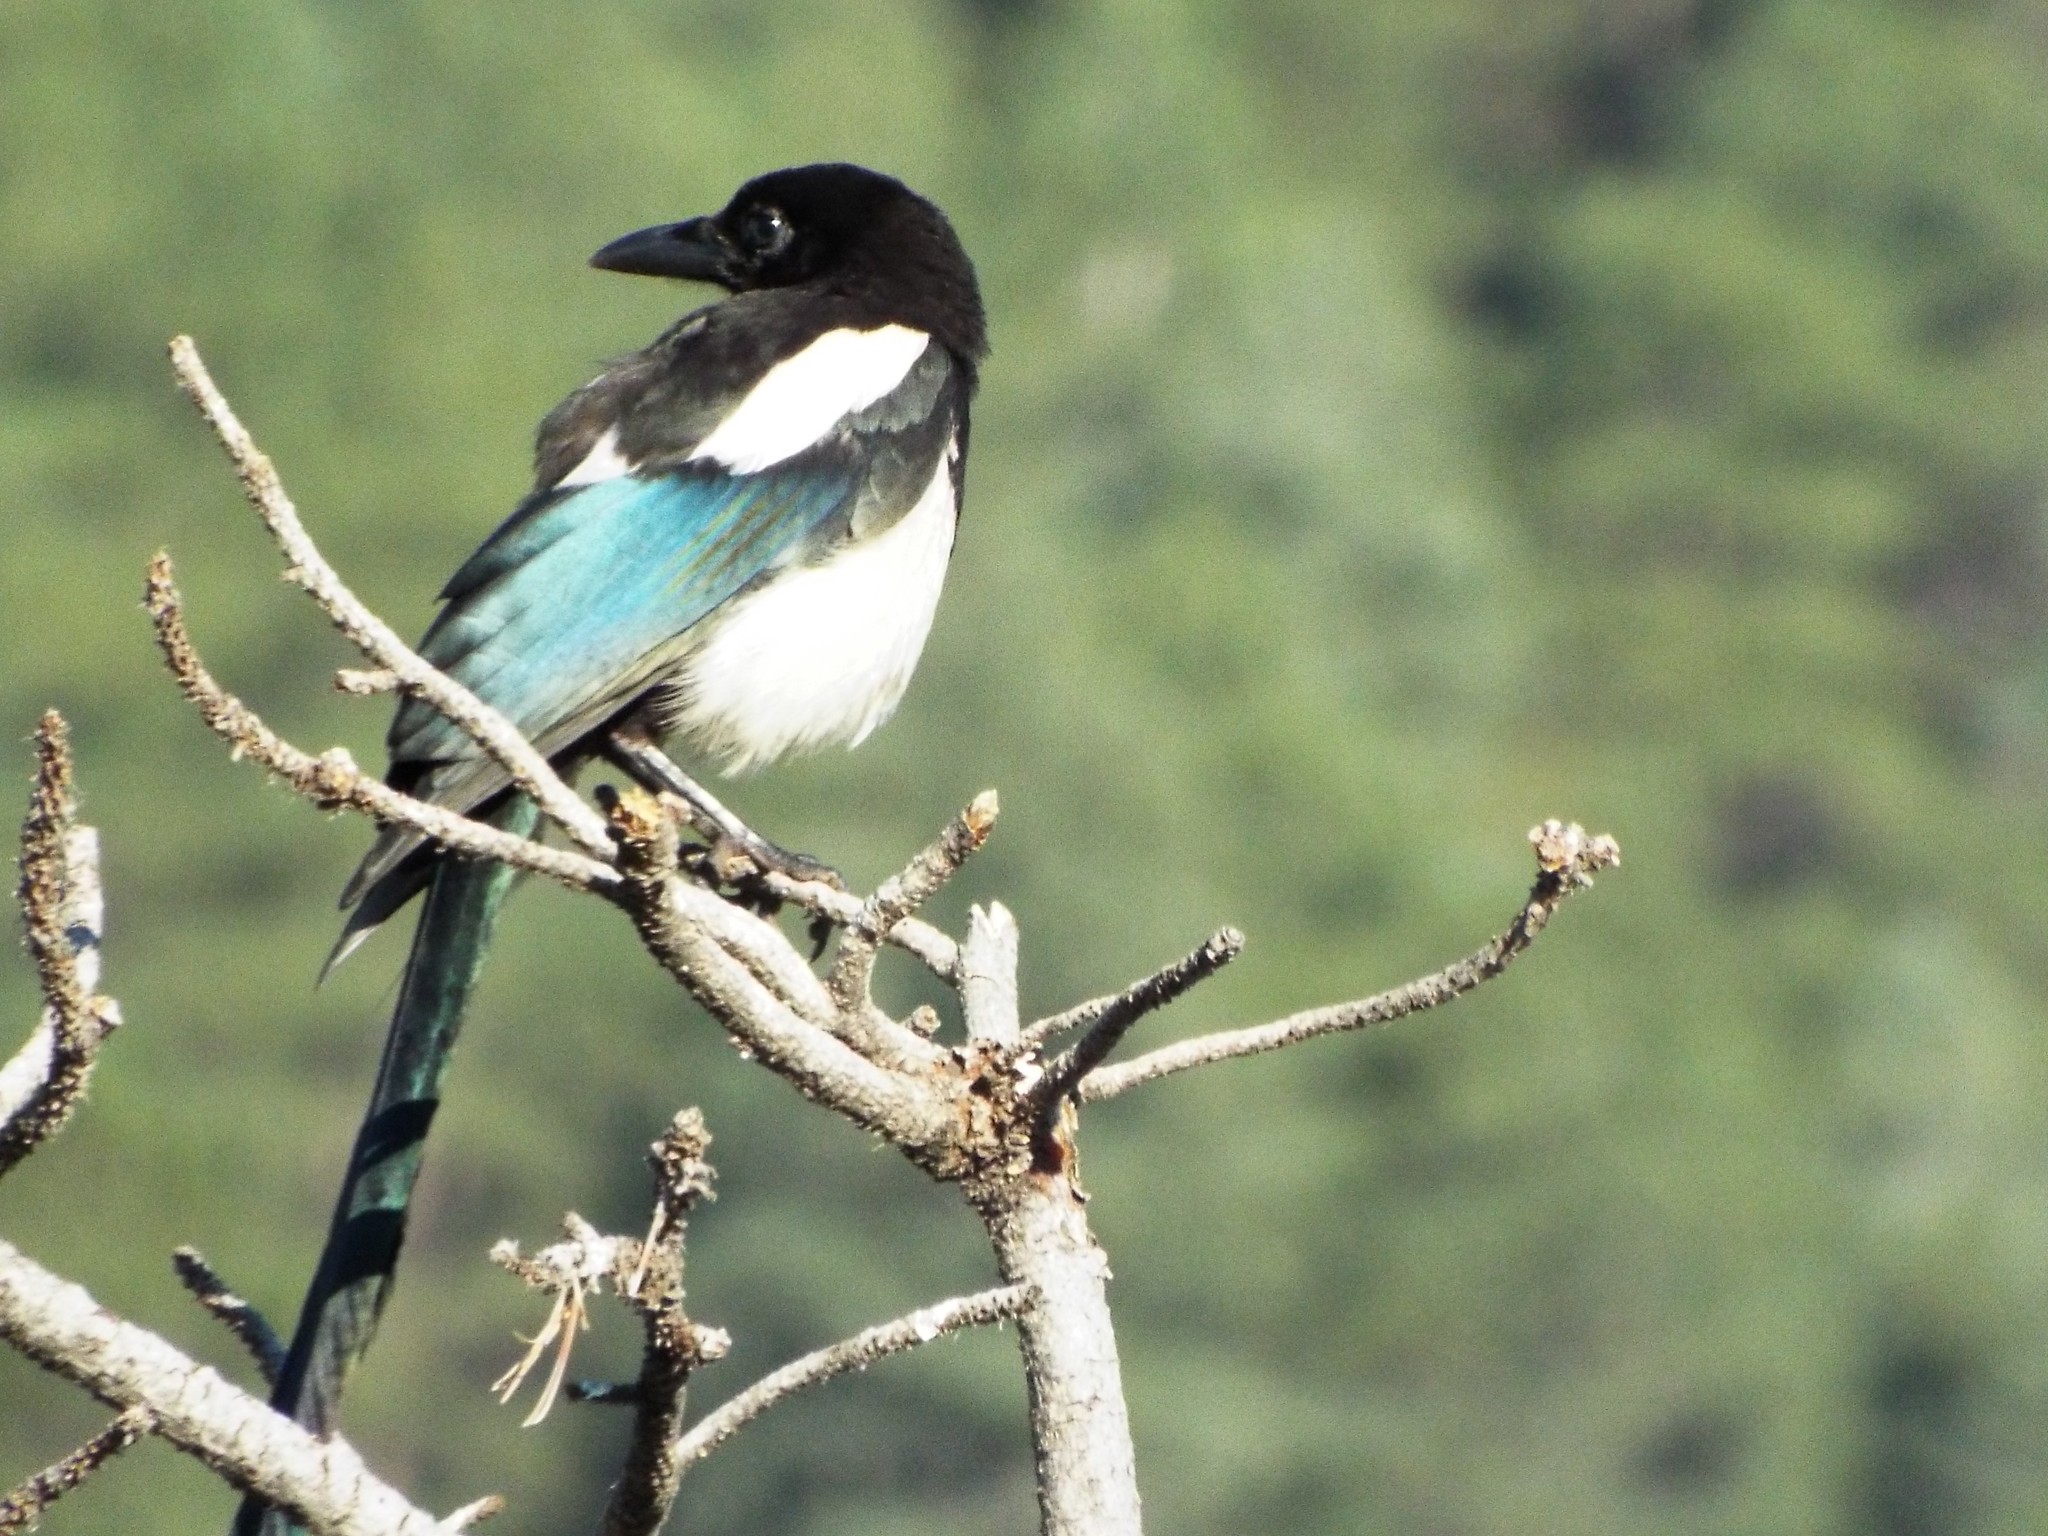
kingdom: Animalia
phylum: Chordata
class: Aves
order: Passeriformes
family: Corvidae
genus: Pica
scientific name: Pica hudsonia
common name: Black-billed magpie
